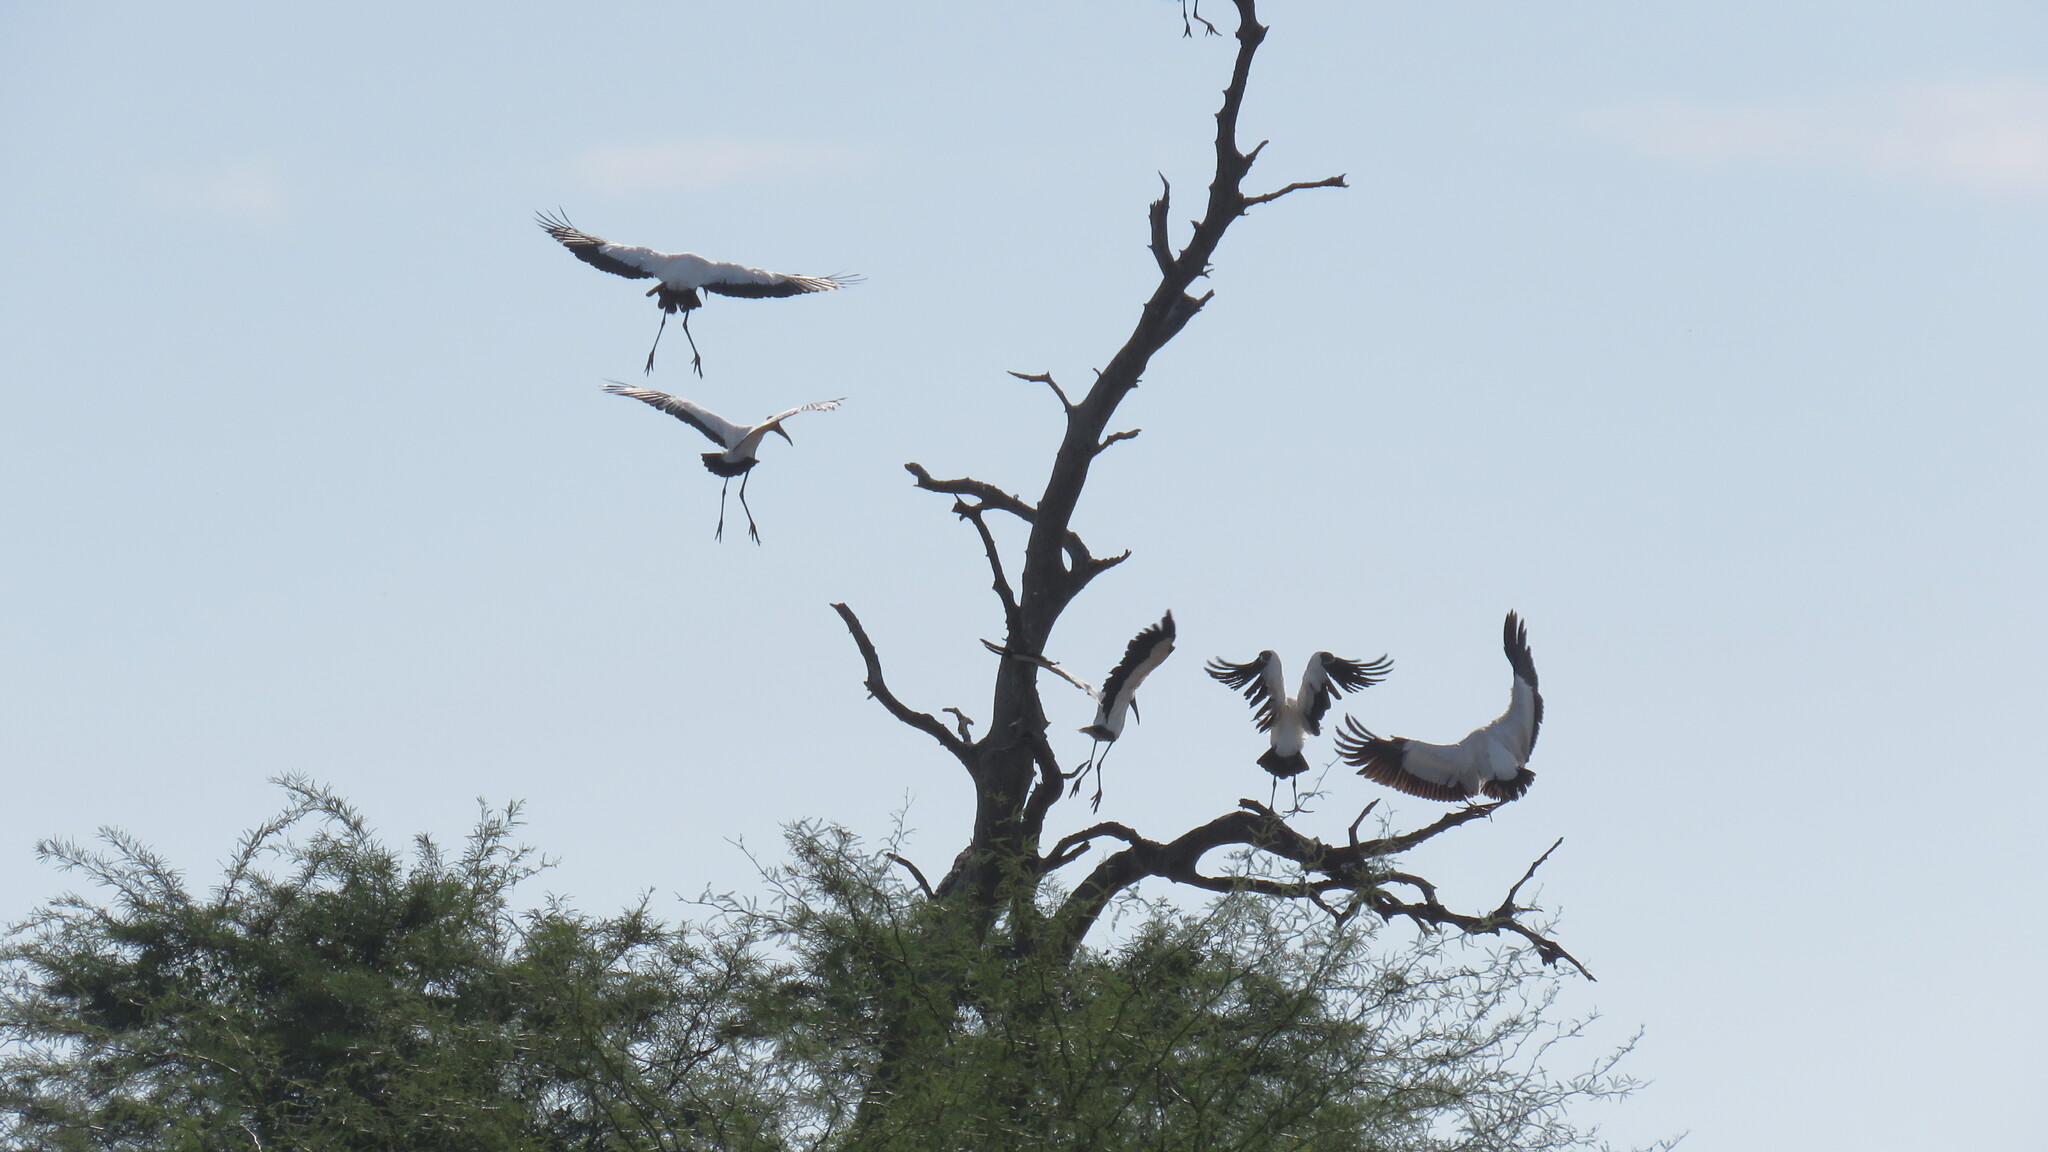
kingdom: Animalia
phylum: Chordata
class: Aves
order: Ciconiiformes
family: Ciconiidae
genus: Mycteria
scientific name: Mycteria americana
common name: Wood stork
